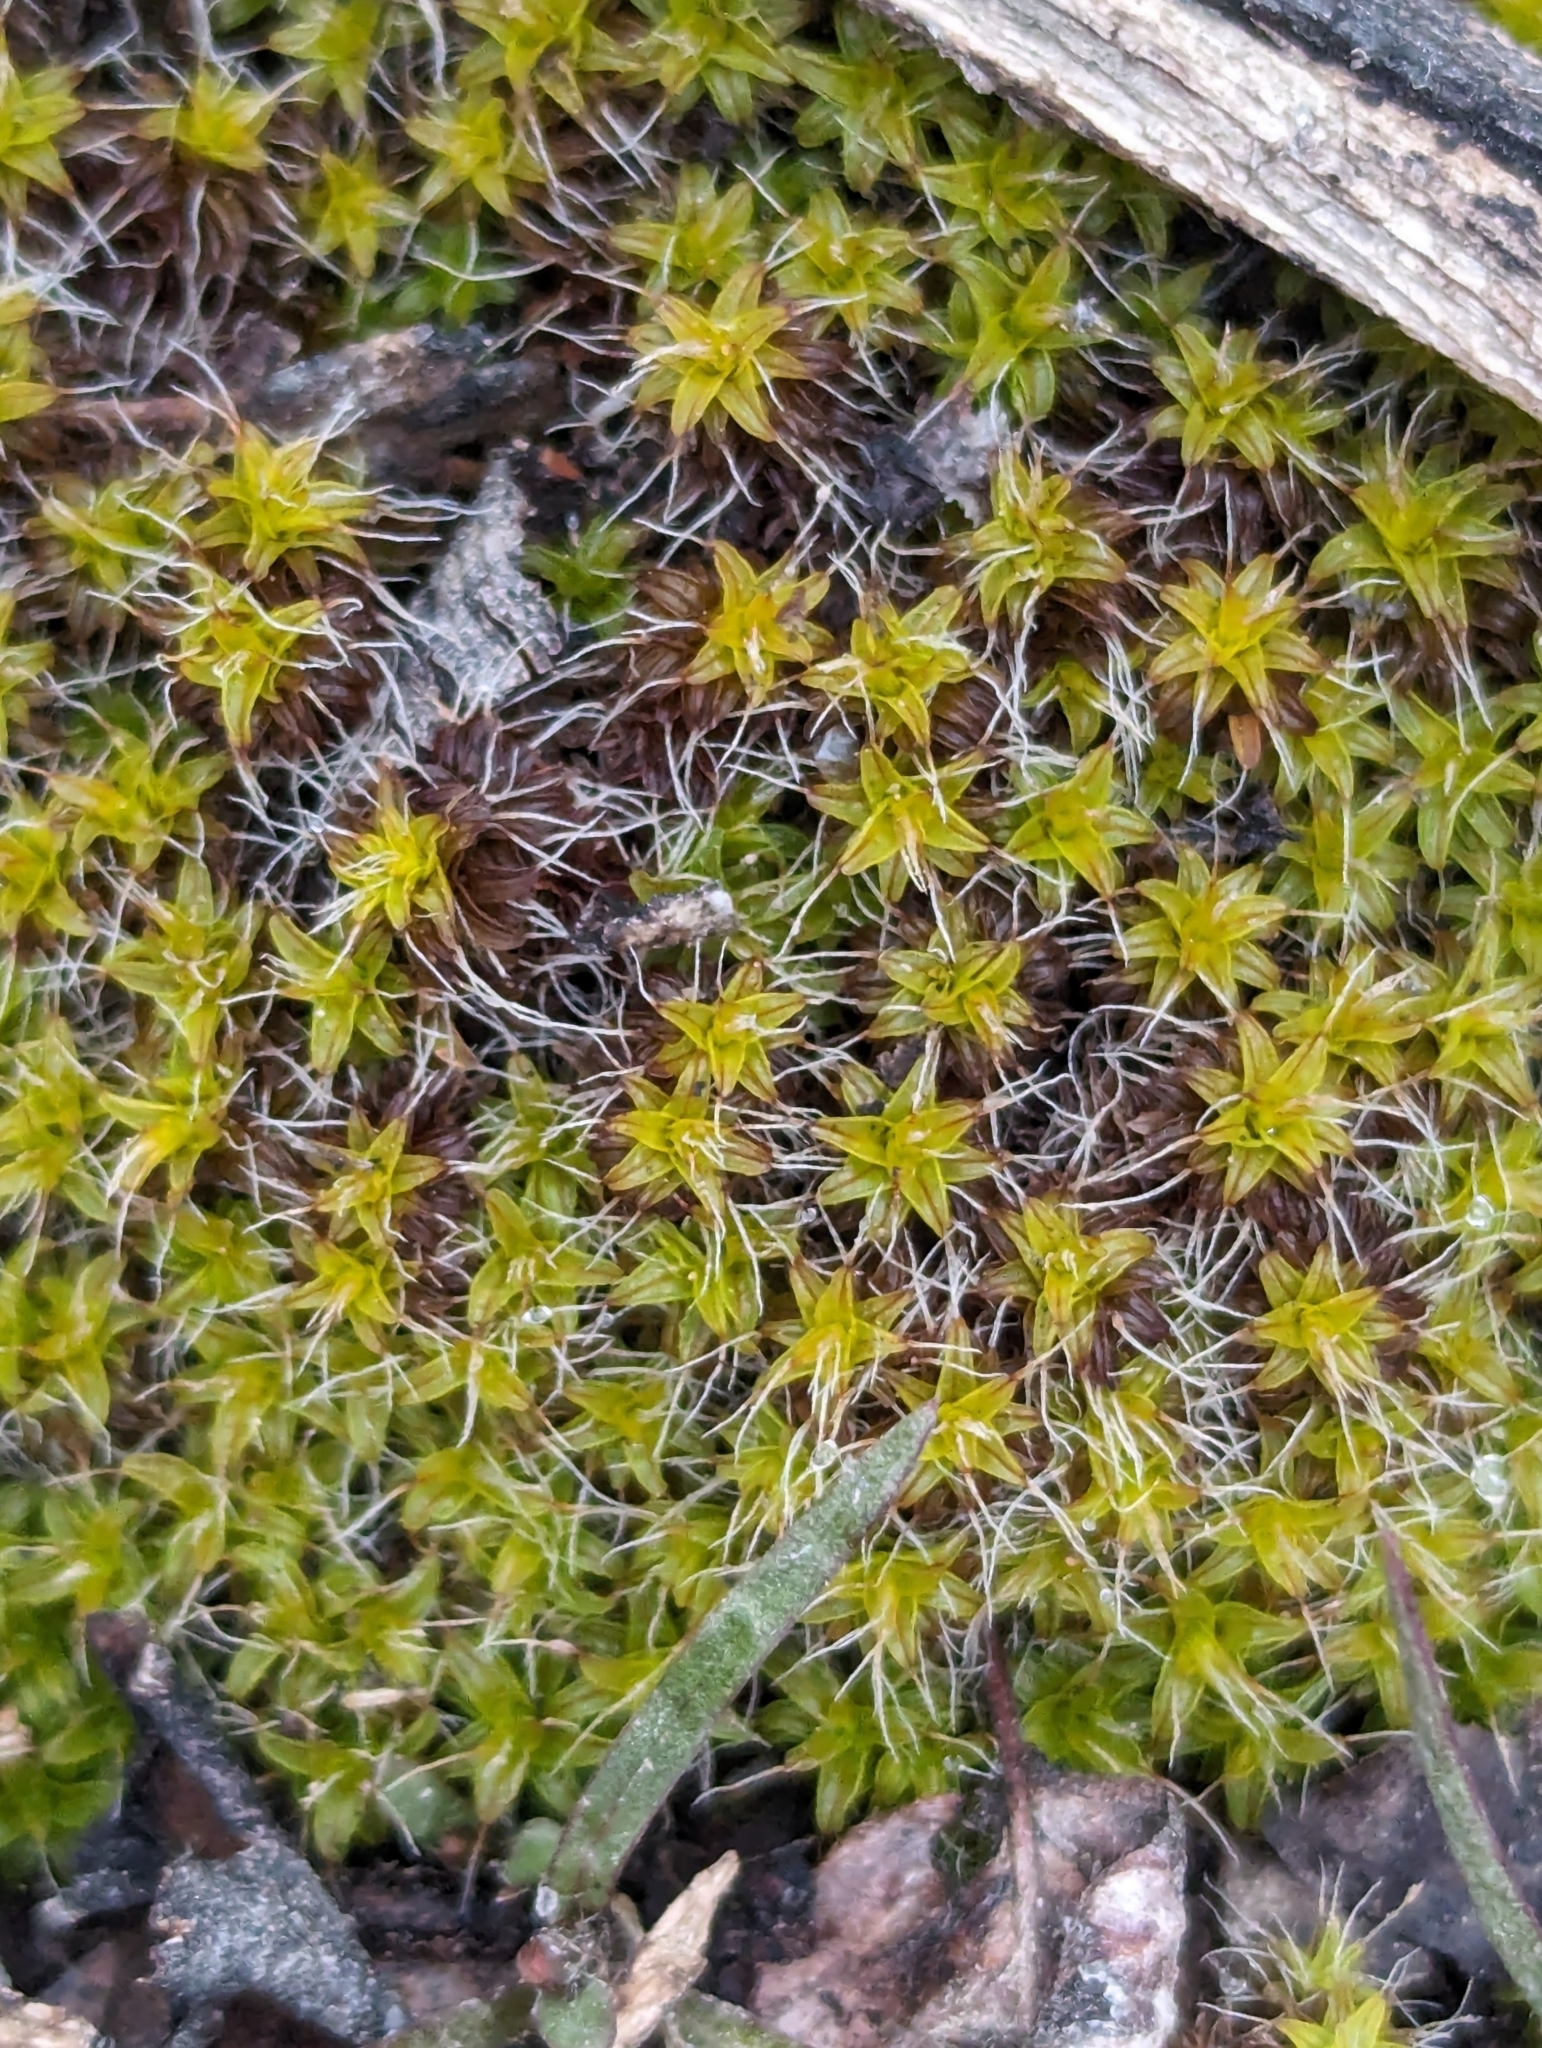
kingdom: Plantae
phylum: Bryophyta
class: Bryopsida
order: Pottiales
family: Pottiaceae
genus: Syntrichia
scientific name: Syntrichia ruralis
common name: Sidewalk screw moss
